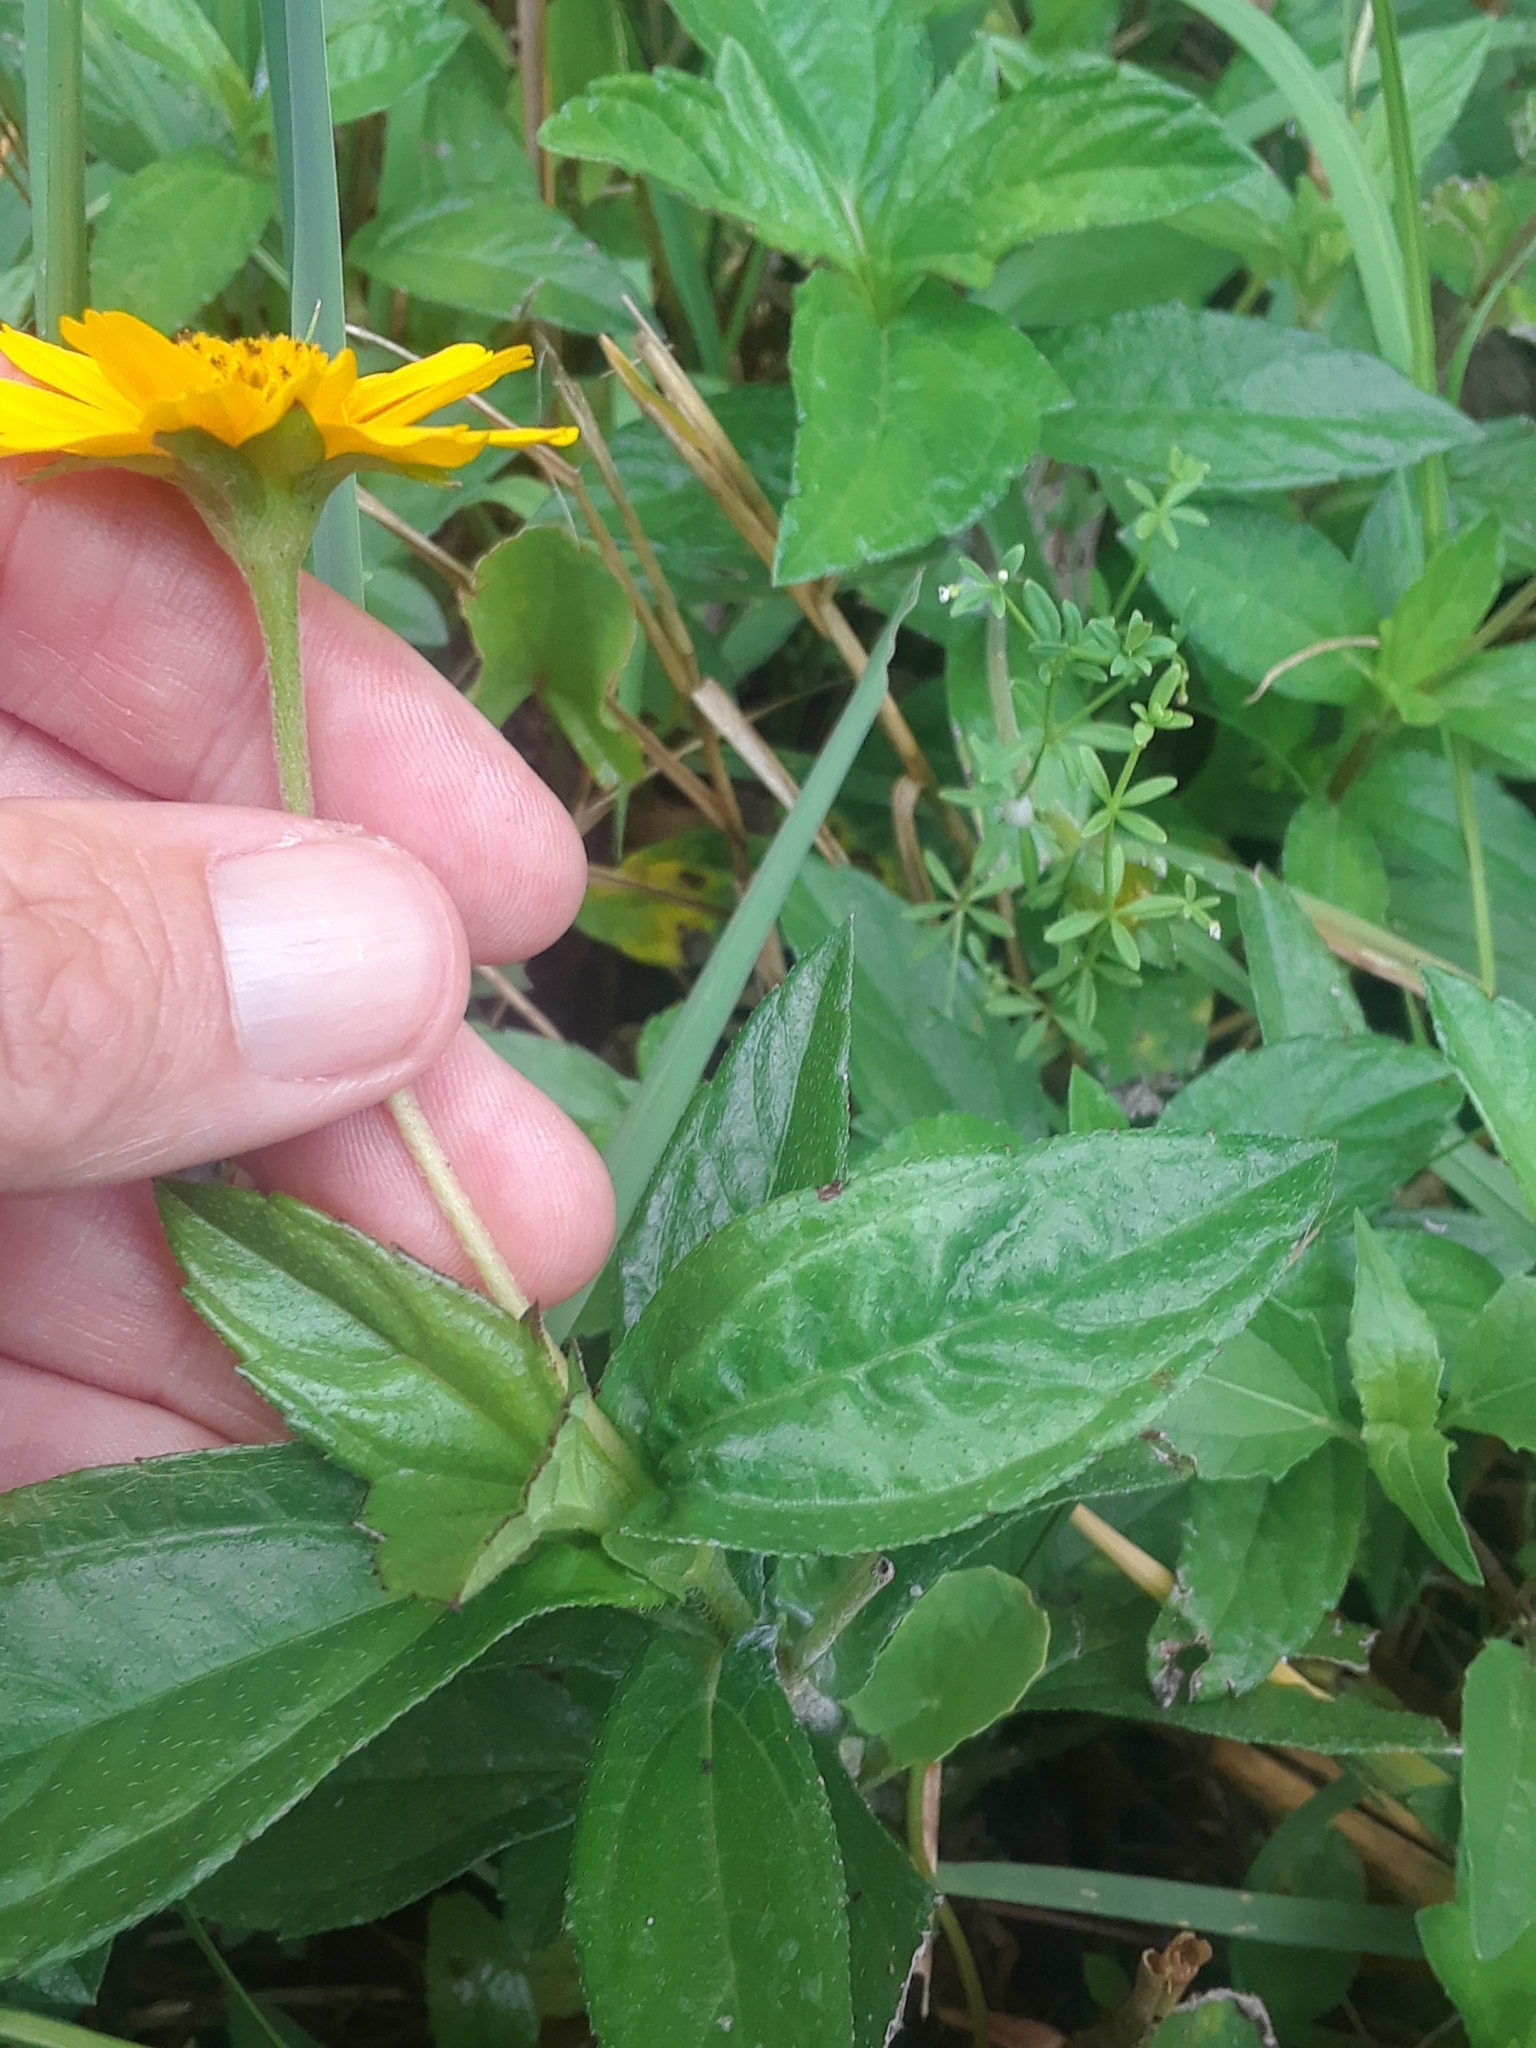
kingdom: Plantae
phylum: Tracheophyta
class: Magnoliopsida
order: Asterales
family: Asteraceae
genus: Sphagneticola
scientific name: Sphagneticola trilobata
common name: Bay biscayne creeping-oxeye
